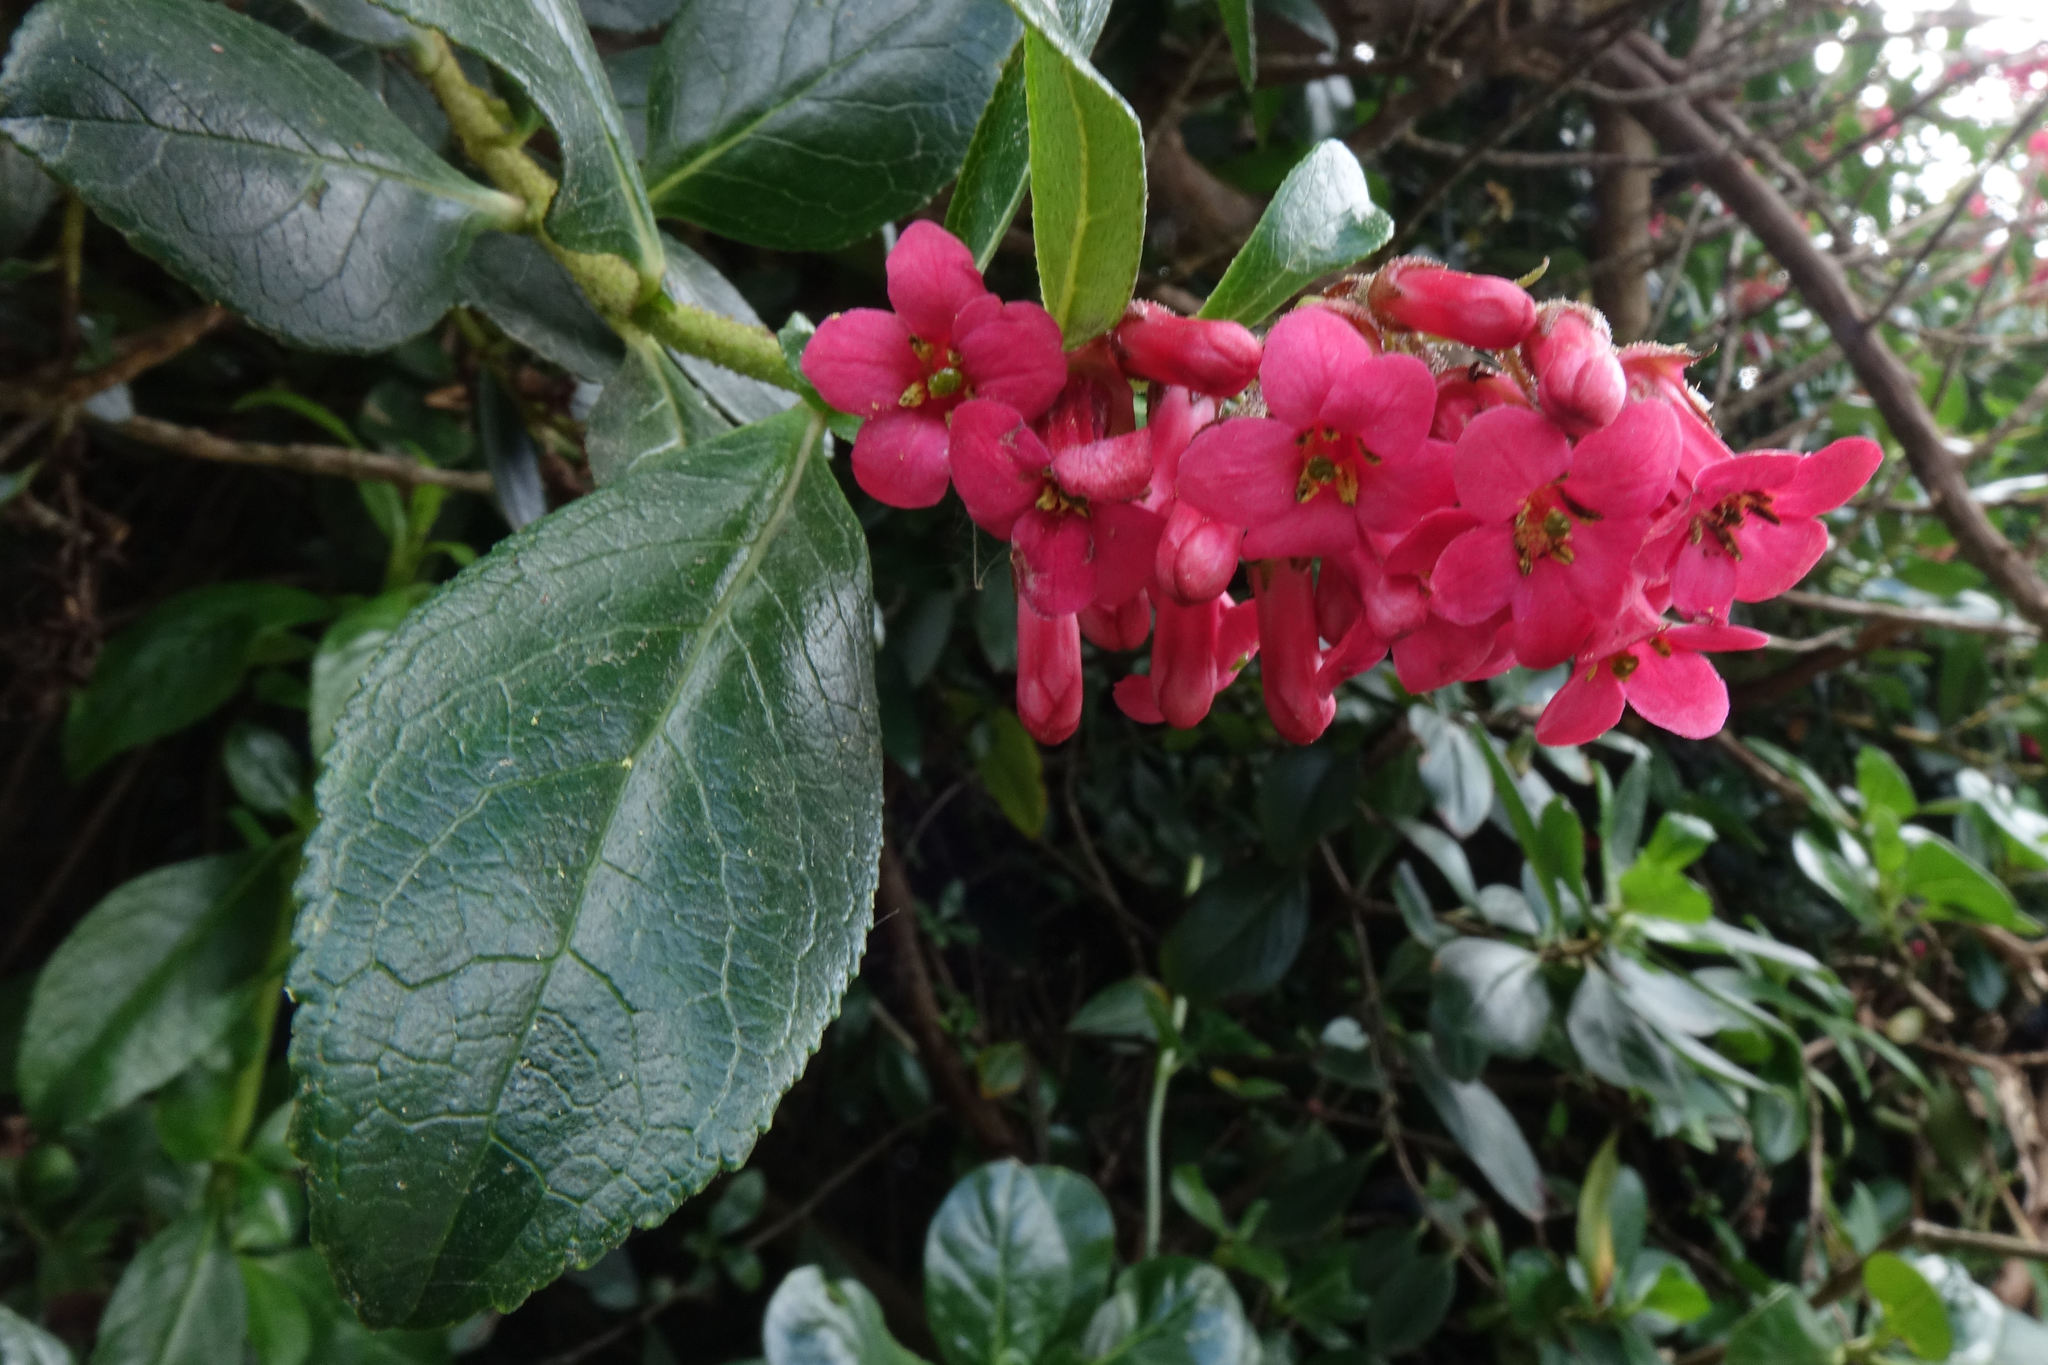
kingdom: Plantae
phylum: Tracheophyta
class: Magnoliopsida
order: Escalloniales
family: Escalloniaceae
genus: Escallonia
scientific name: Escallonia rubra
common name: Redclaws
